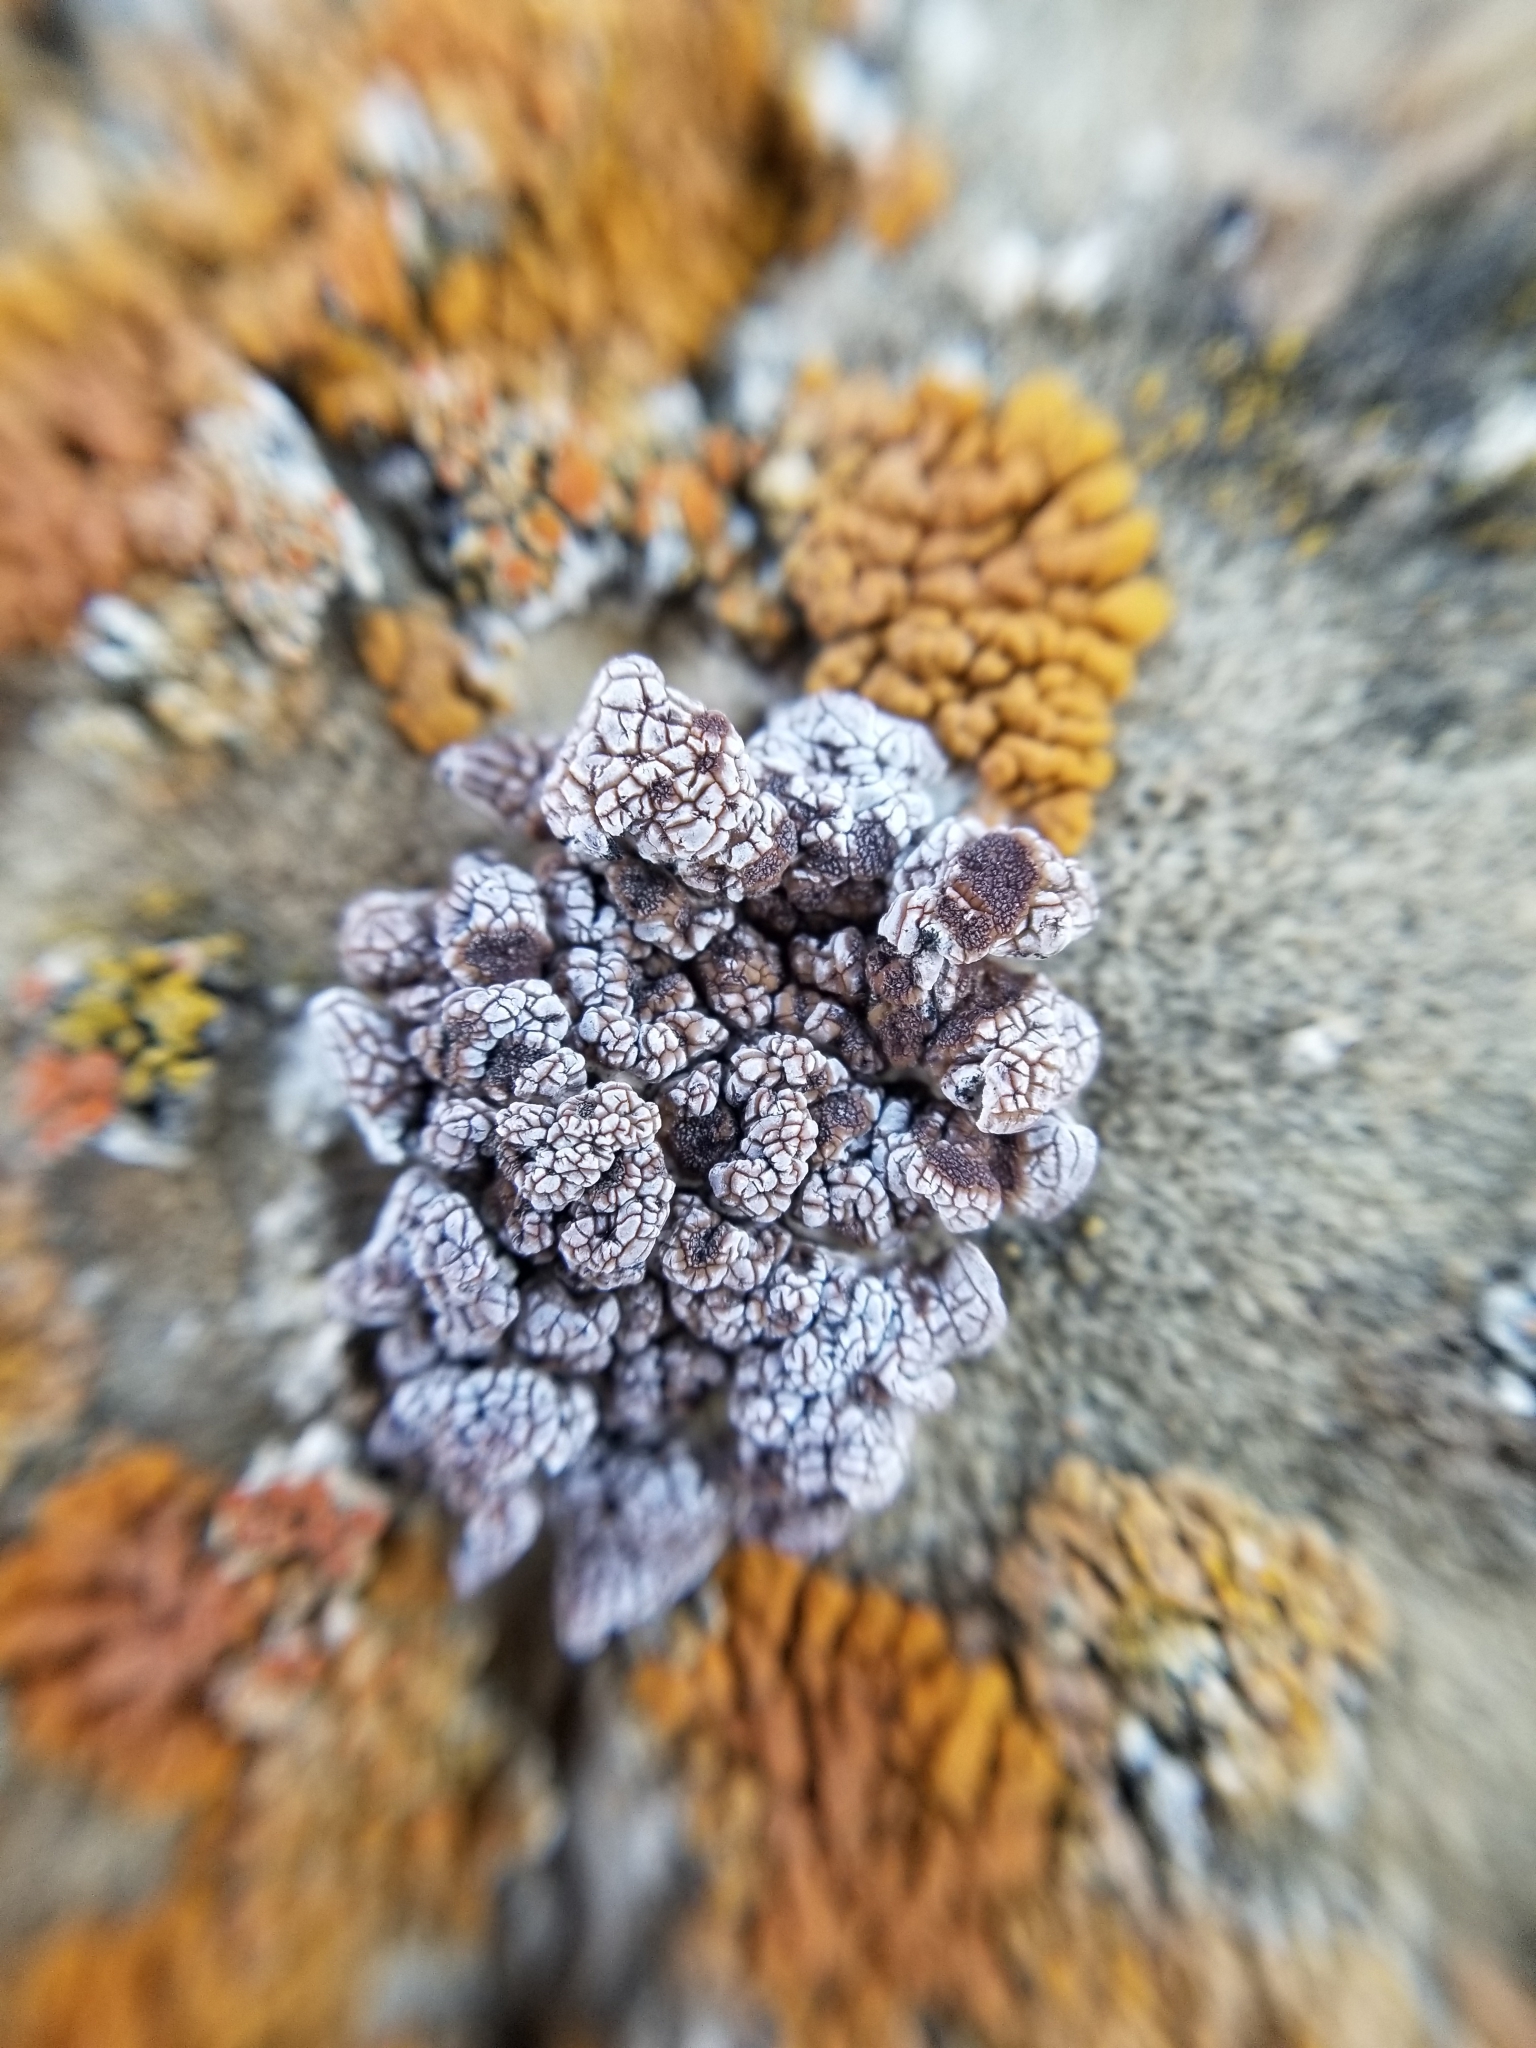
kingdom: Fungi
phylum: Ascomycota
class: Lecanoromycetes
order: Acarosporales
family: Acarosporaceae
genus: Glypholecia
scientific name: Glypholecia scabra
